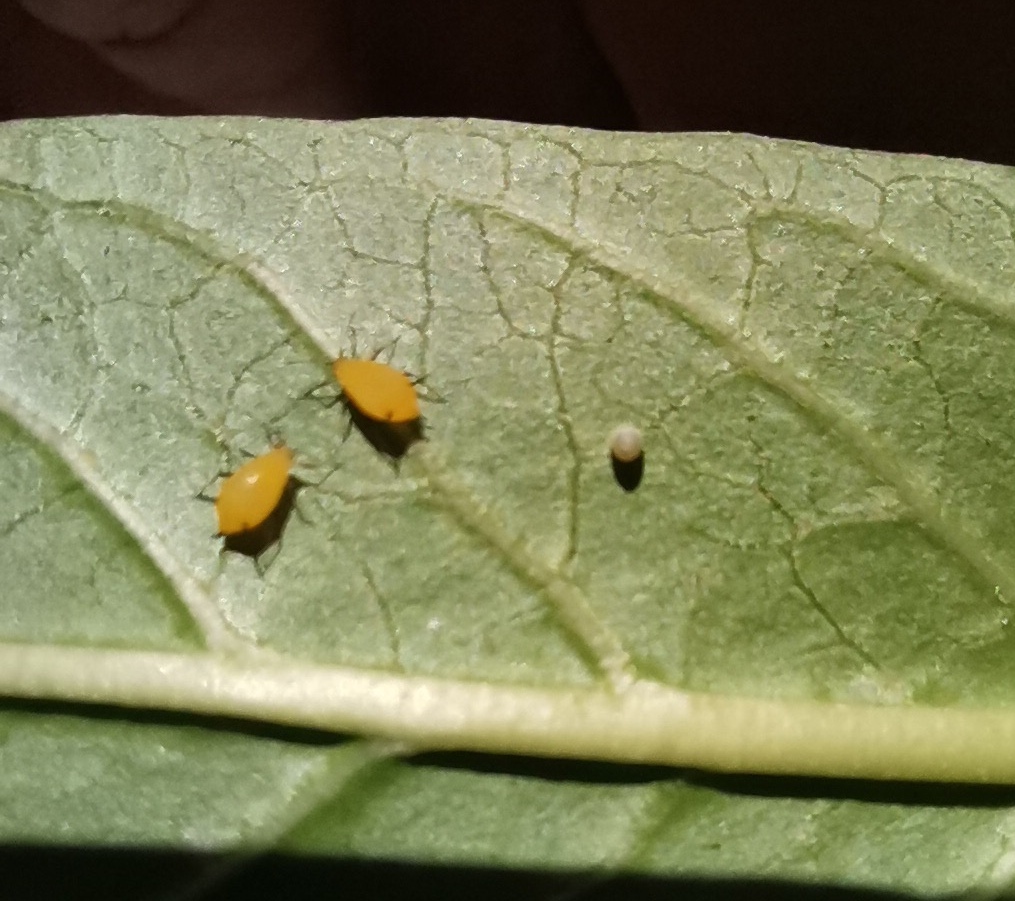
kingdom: Animalia
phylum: Arthropoda
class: Insecta
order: Hemiptera
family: Aphididae
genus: Aphis
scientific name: Aphis nerii
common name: Oleander aphid
